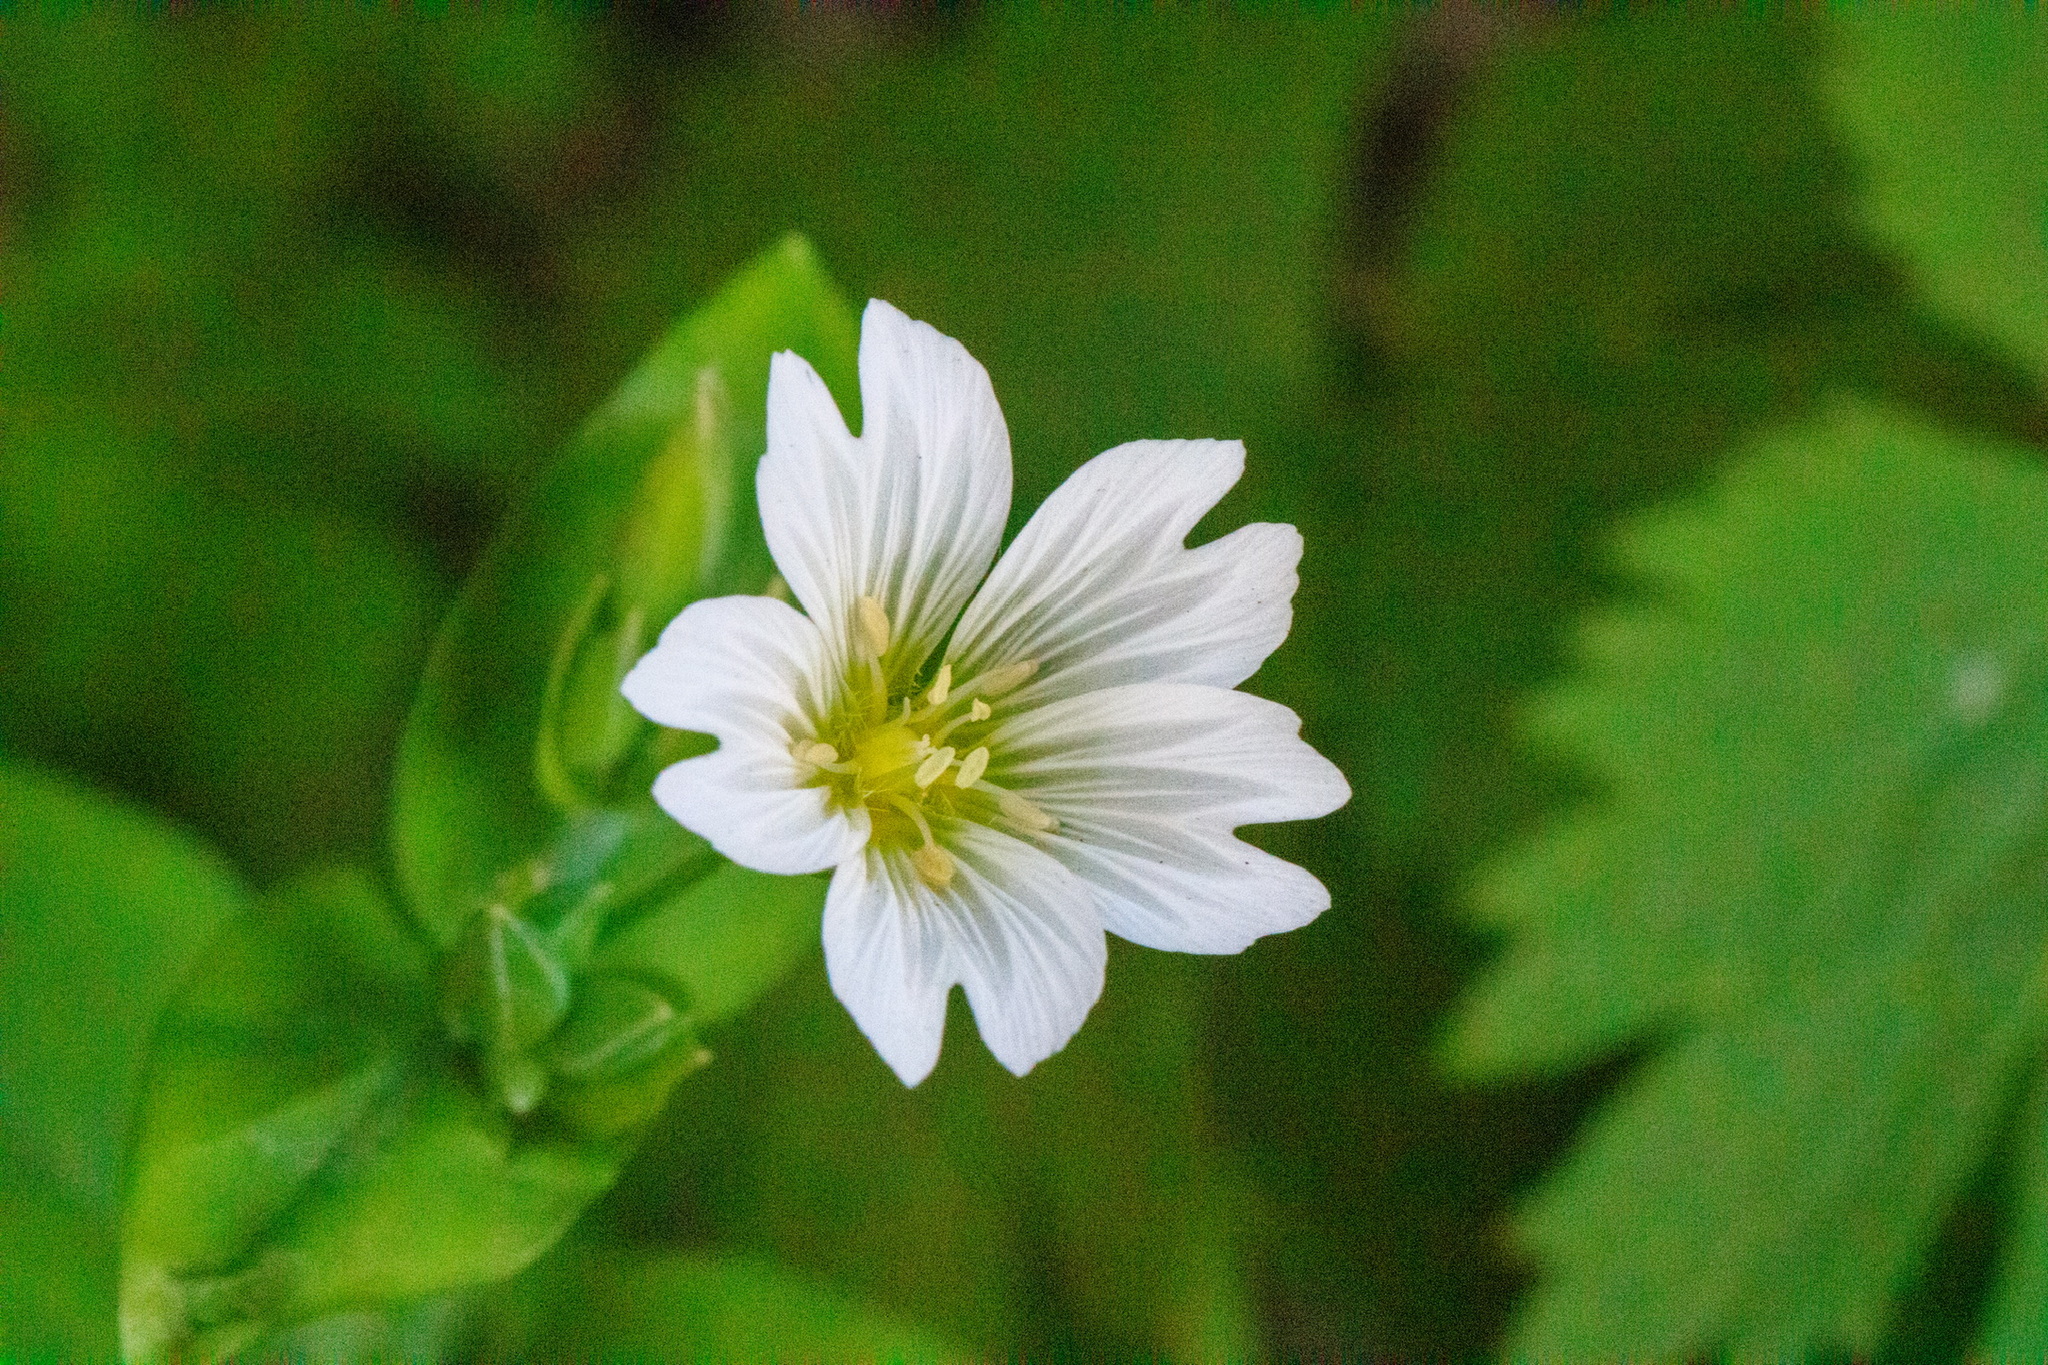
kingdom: Plantae
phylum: Tracheophyta
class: Magnoliopsida
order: Caryophyllales
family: Caryophyllaceae
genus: Cerastium
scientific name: Cerastium davuricum
